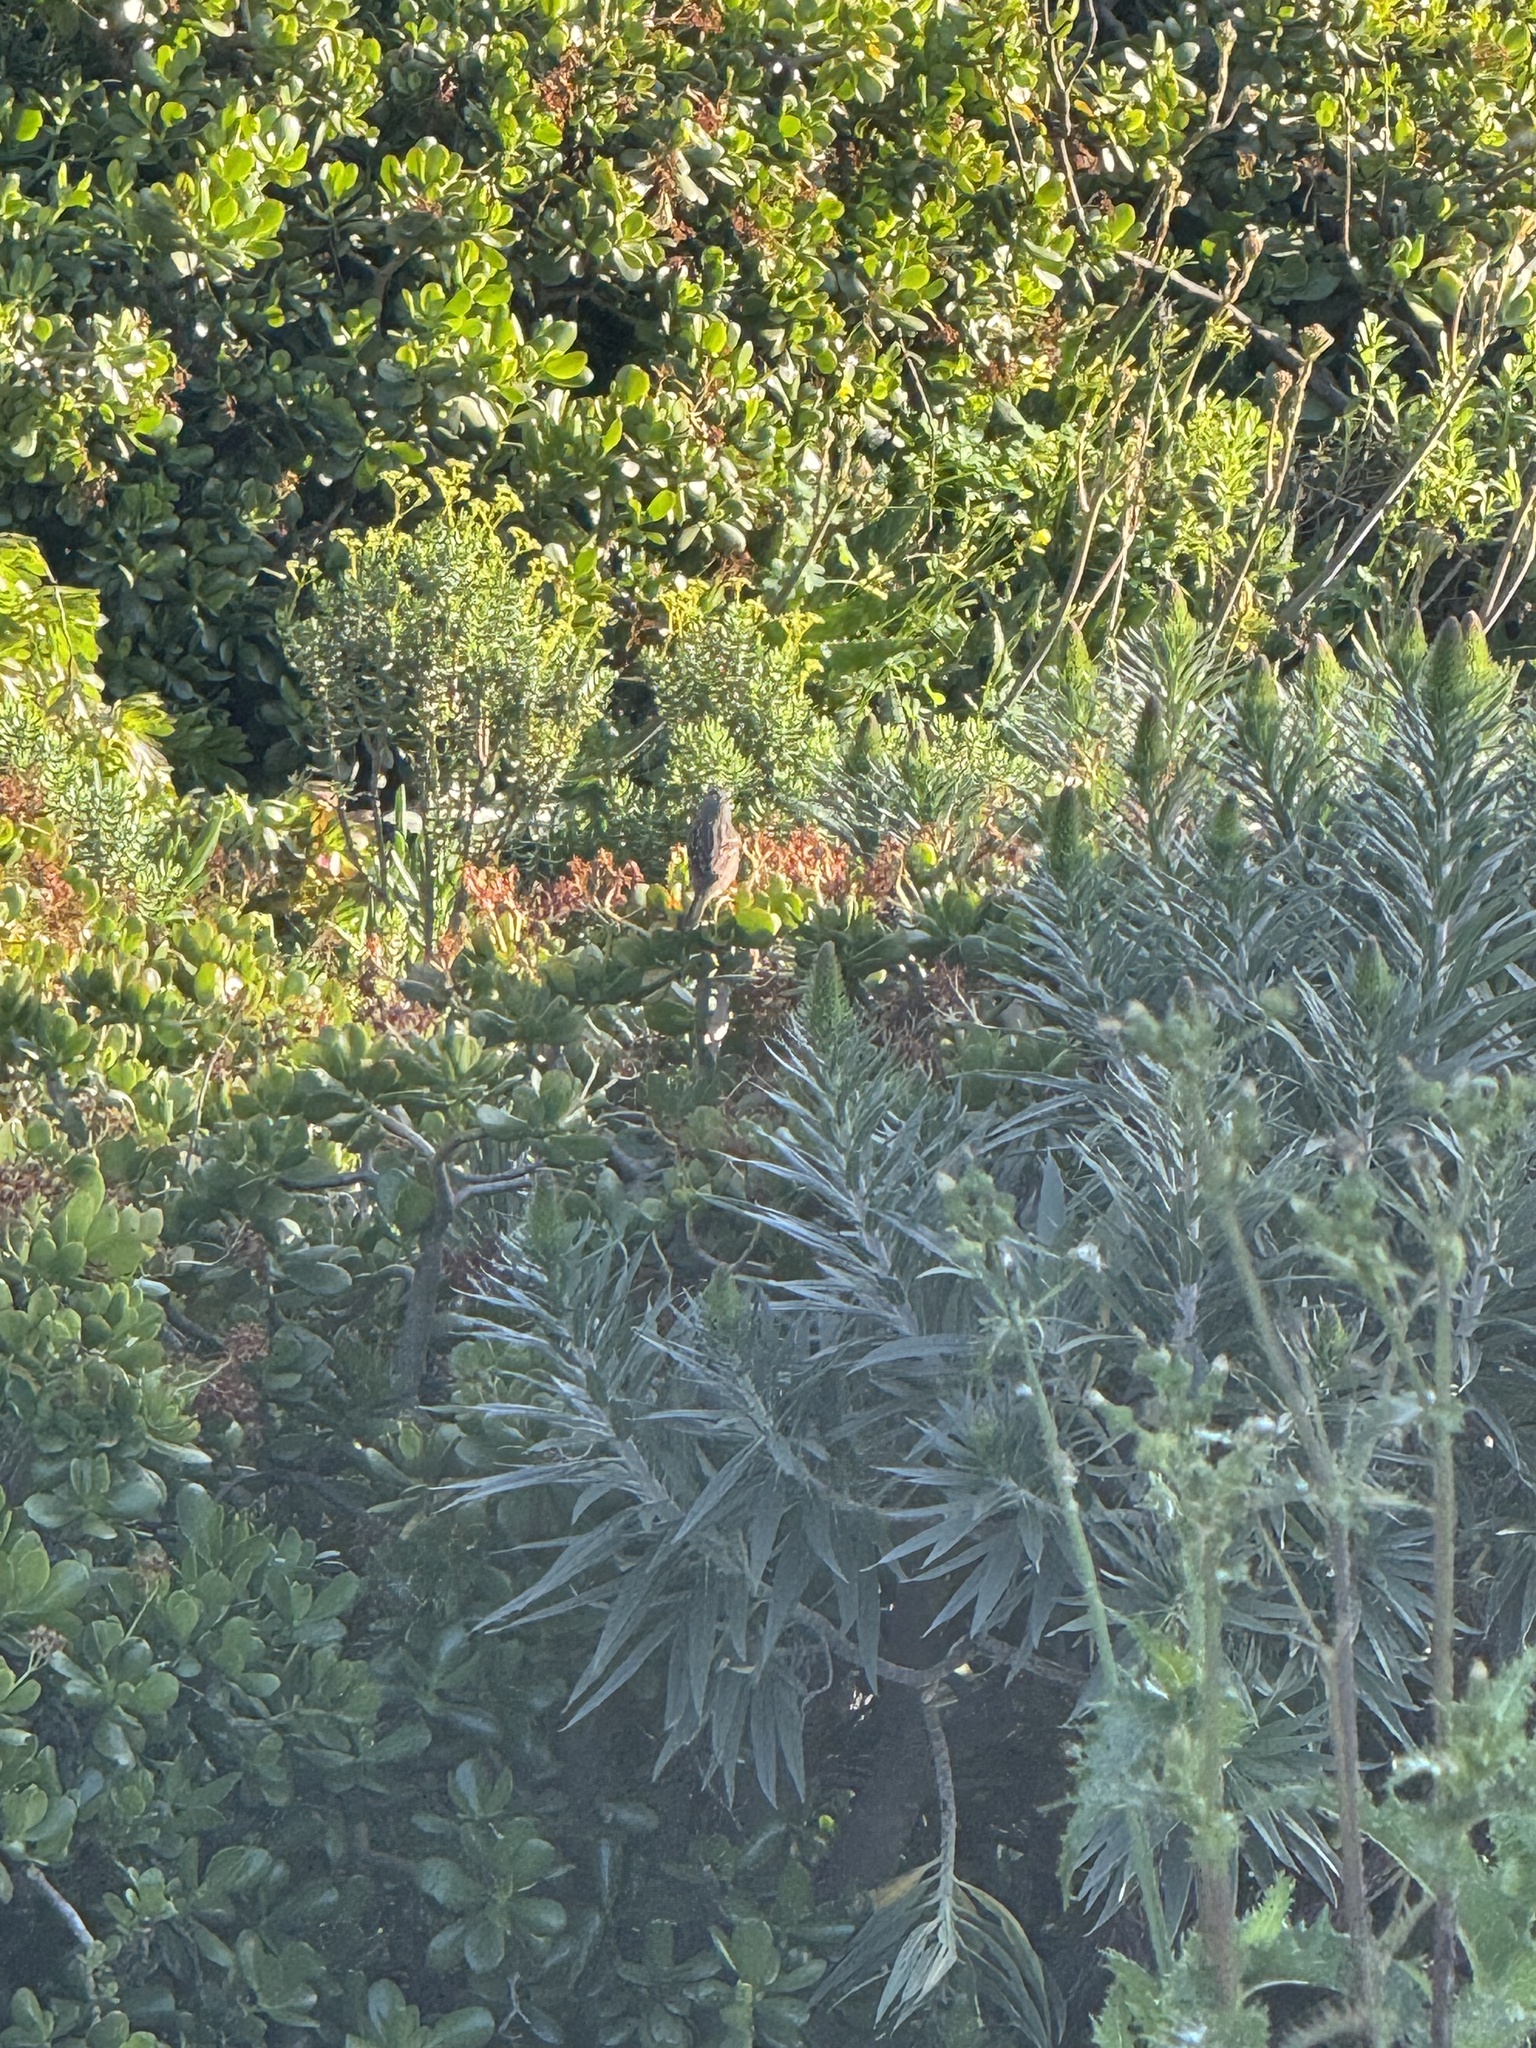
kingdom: Animalia
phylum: Chordata
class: Aves
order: Passeriformes
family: Passerellidae
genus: Zonotrichia
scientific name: Zonotrichia leucophrys
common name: White-crowned sparrow
